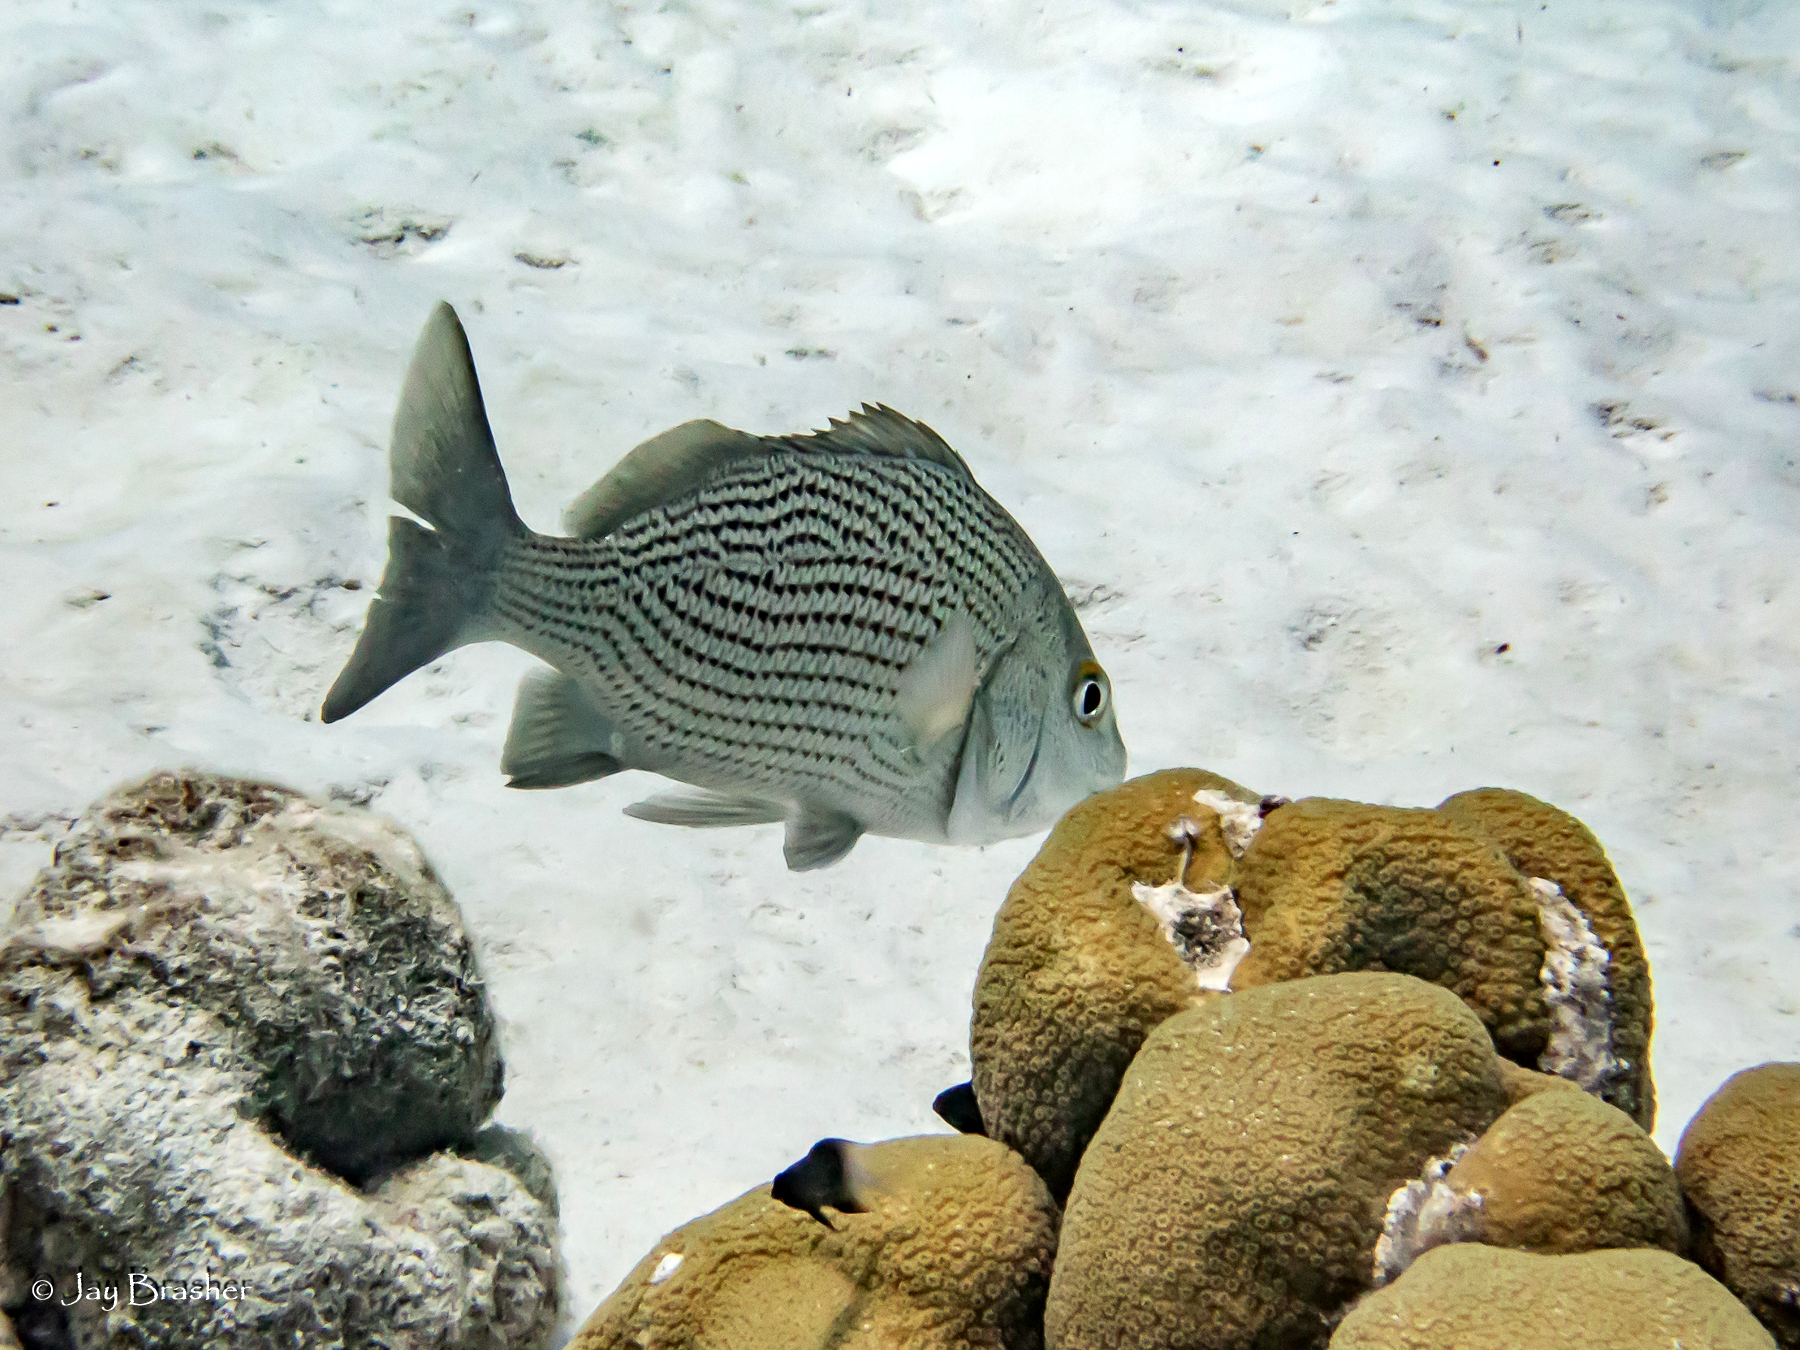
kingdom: Animalia
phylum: Cnidaria
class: Anthozoa
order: Scleractinia
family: Merulinidae
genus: Orbicella
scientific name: Orbicella annularis
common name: Boulder star coral
